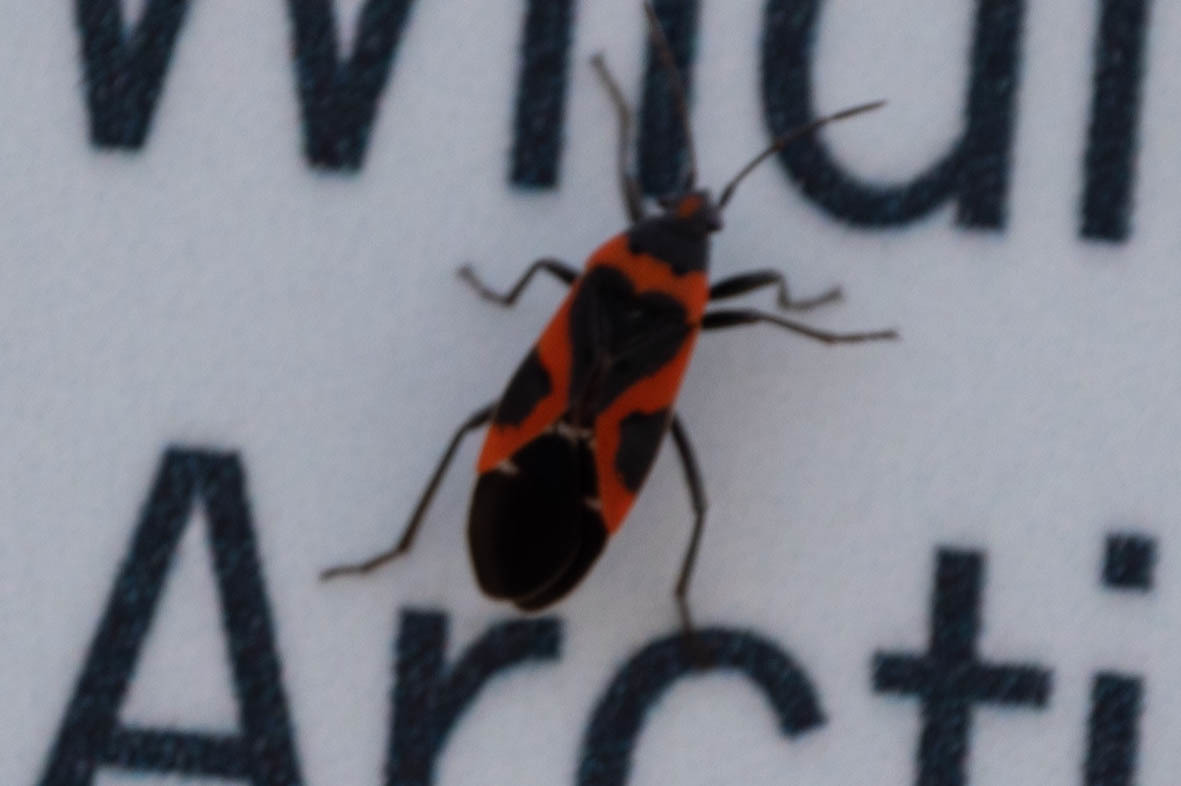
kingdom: Animalia
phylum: Arthropoda
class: Insecta
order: Hemiptera
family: Lygaeidae
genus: Lygaeus
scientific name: Lygaeus kalmii
